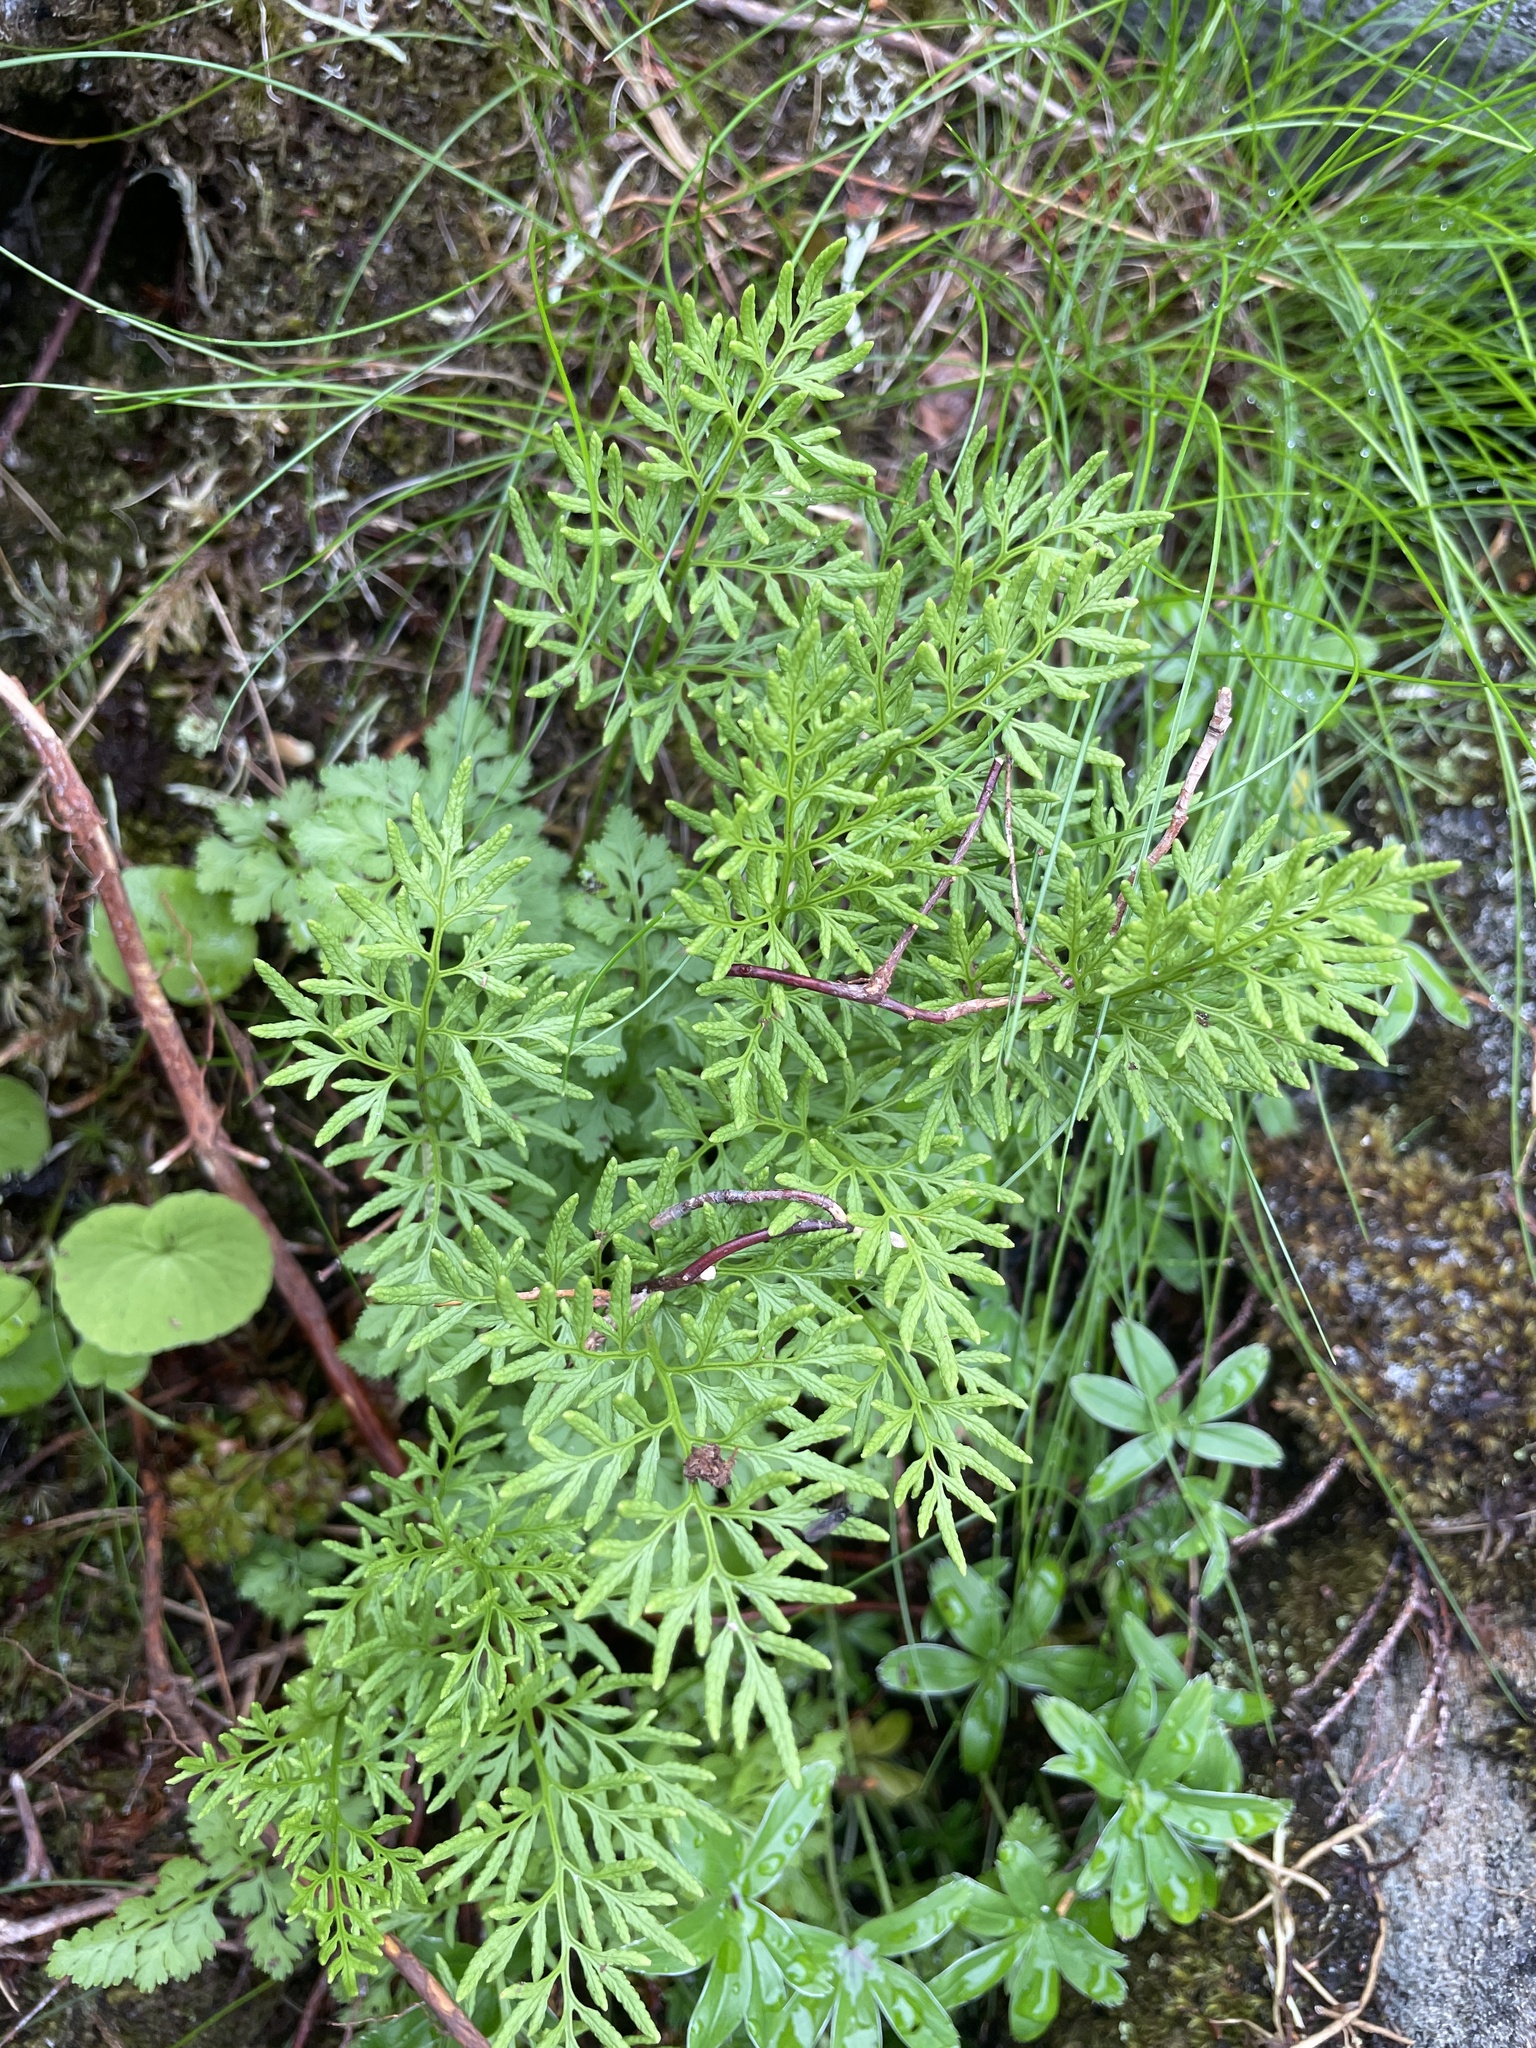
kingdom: Plantae
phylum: Tracheophyta
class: Polypodiopsida
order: Polypodiales
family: Pteridaceae
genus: Cryptogramma
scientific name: Cryptogramma crispa
